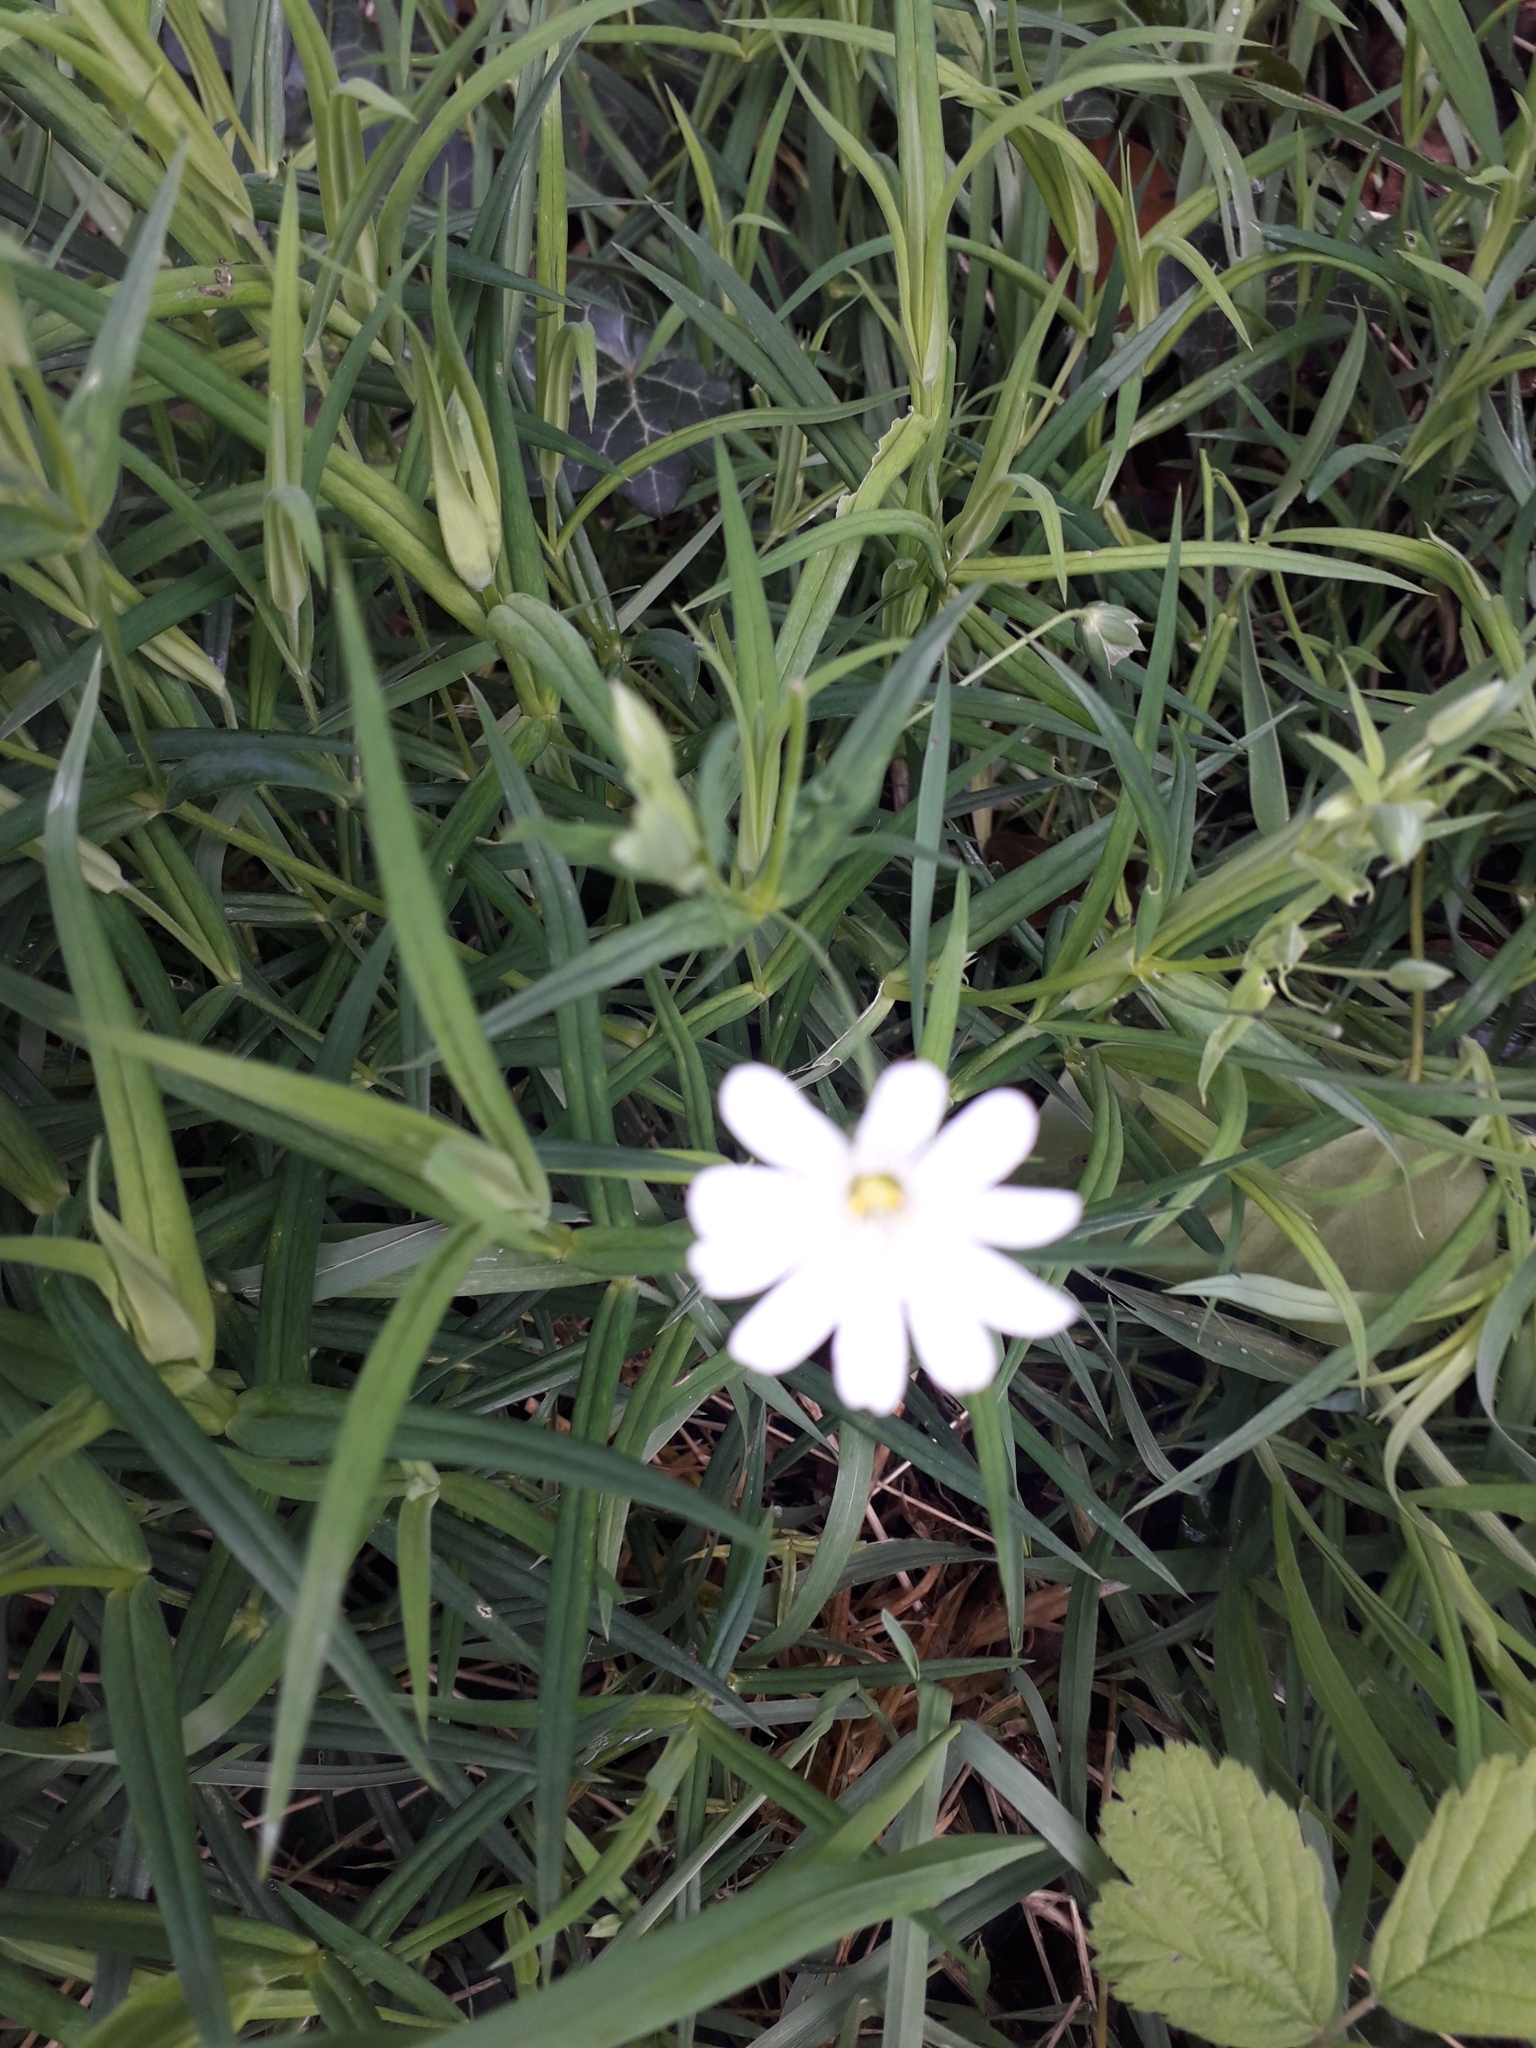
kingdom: Plantae
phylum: Tracheophyta
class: Magnoliopsida
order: Caryophyllales
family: Caryophyllaceae
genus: Rabelera
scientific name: Rabelera holostea
